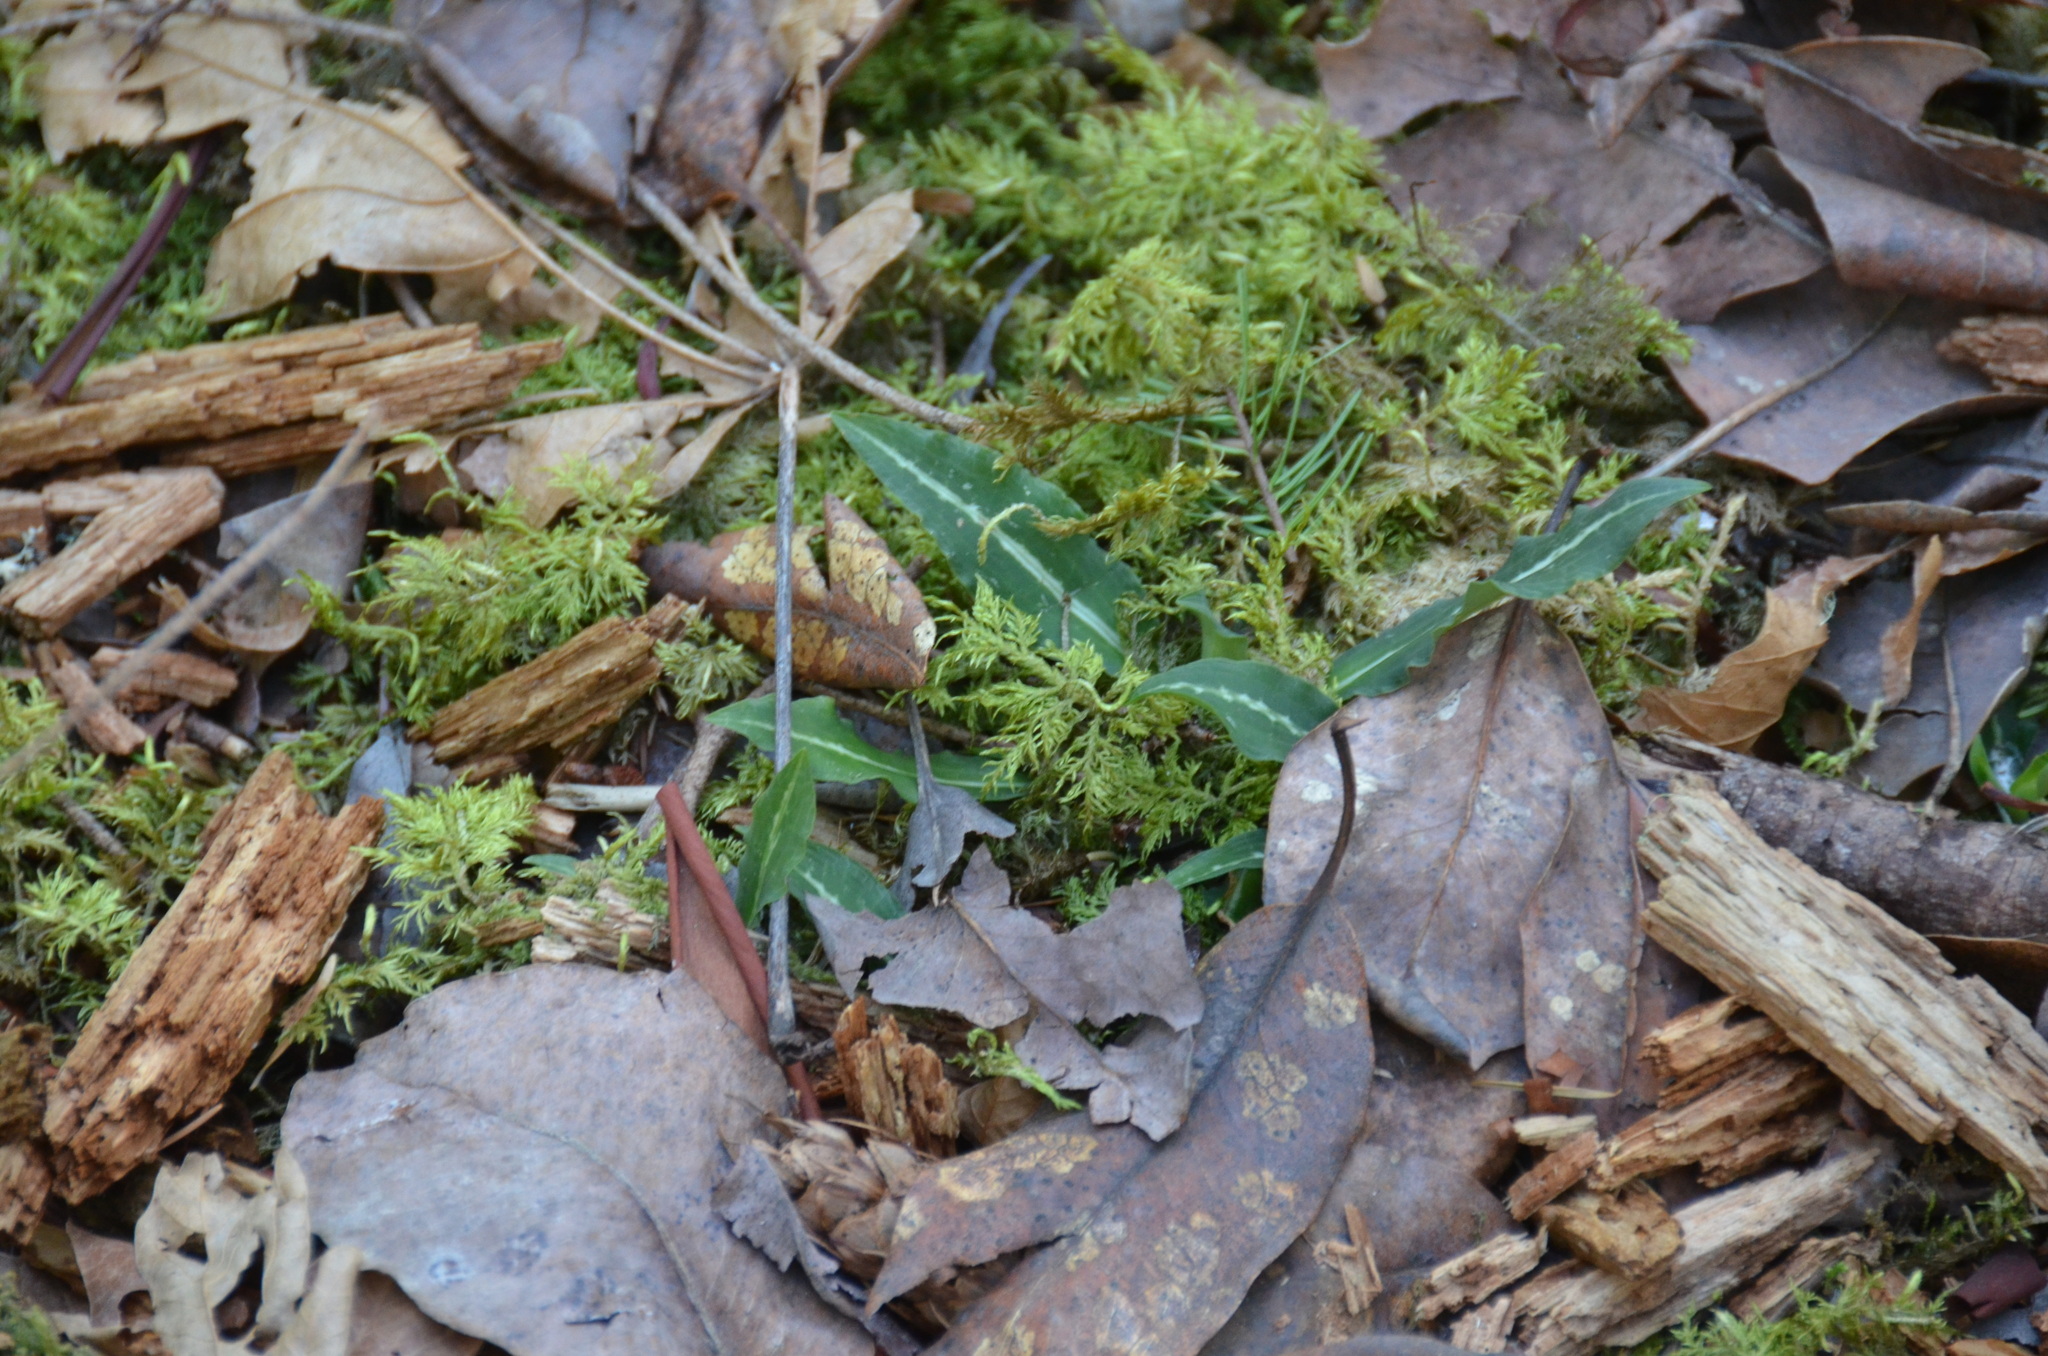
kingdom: Plantae
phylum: Tracheophyta
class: Liliopsida
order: Asparagales
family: Orchidaceae
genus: Goodyera
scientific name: Goodyera oblongifolia
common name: Giant rattlesnake-plantain
